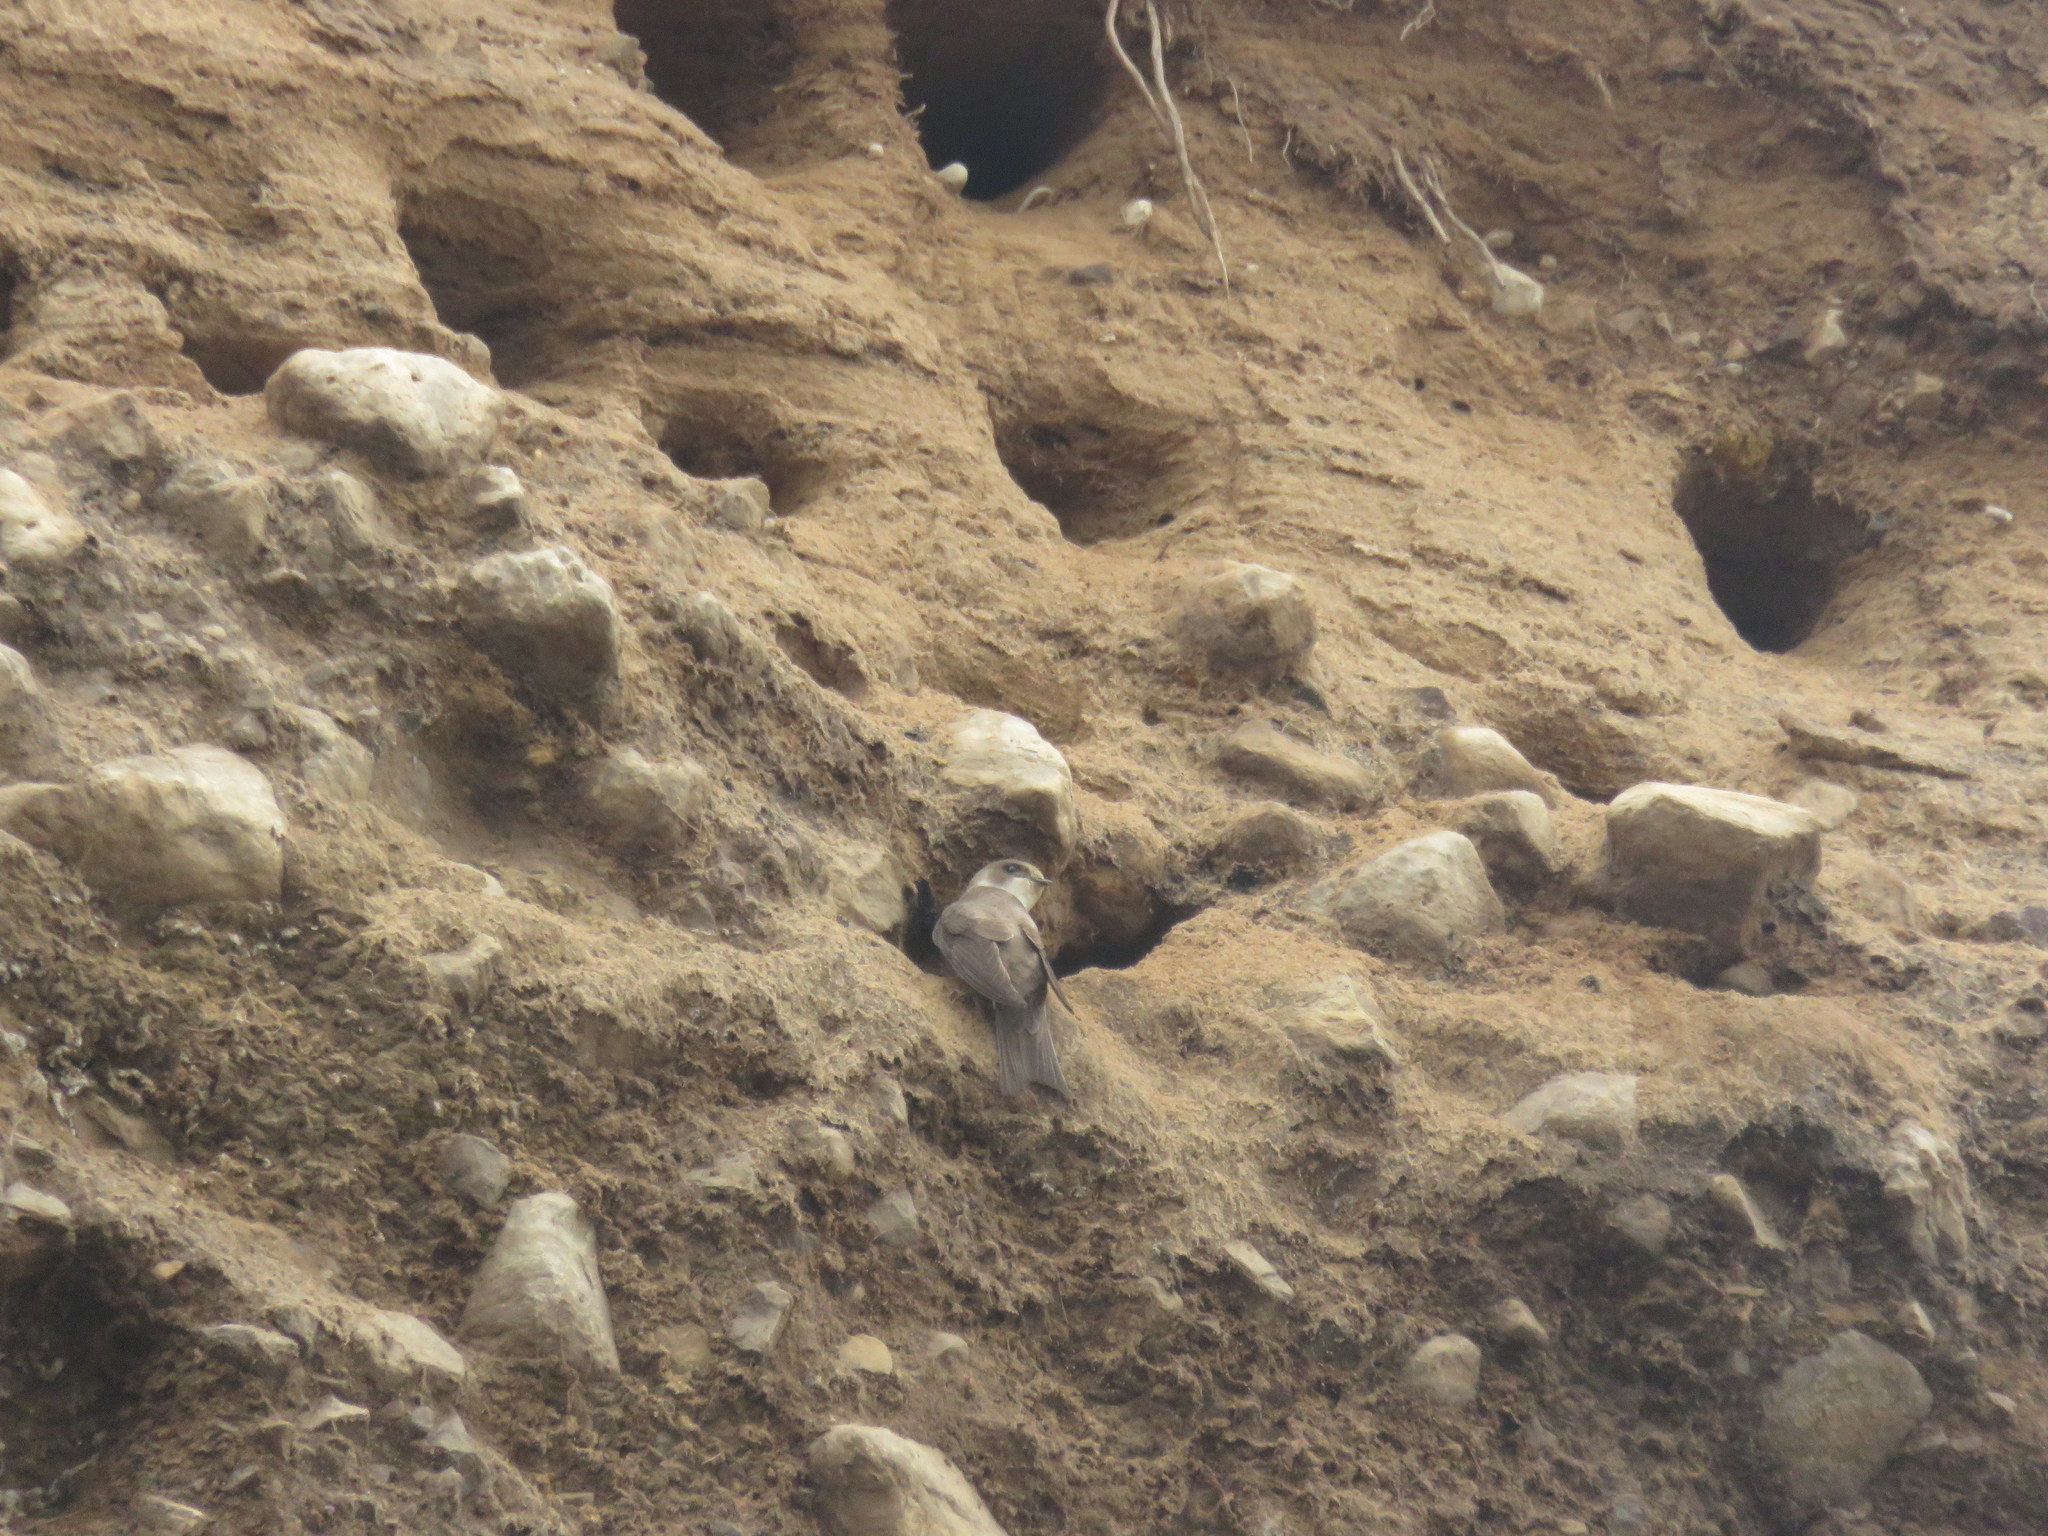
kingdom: Animalia
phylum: Chordata
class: Aves
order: Passeriformes
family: Hirundinidae
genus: Riparia
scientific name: Riparia riparia
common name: Sand martin
